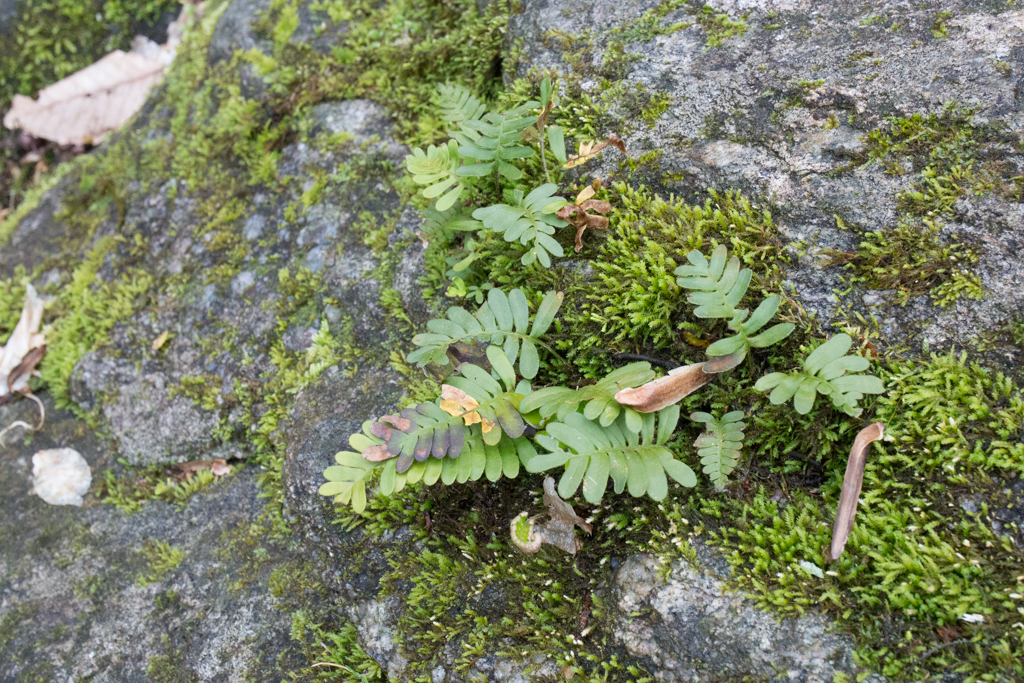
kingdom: Plantae
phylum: Tracheophyta
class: Polypodiopsida
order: Polypodiales
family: Polypodiaceae
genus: Pleopeltis
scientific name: Pleopeltis michauxiana
